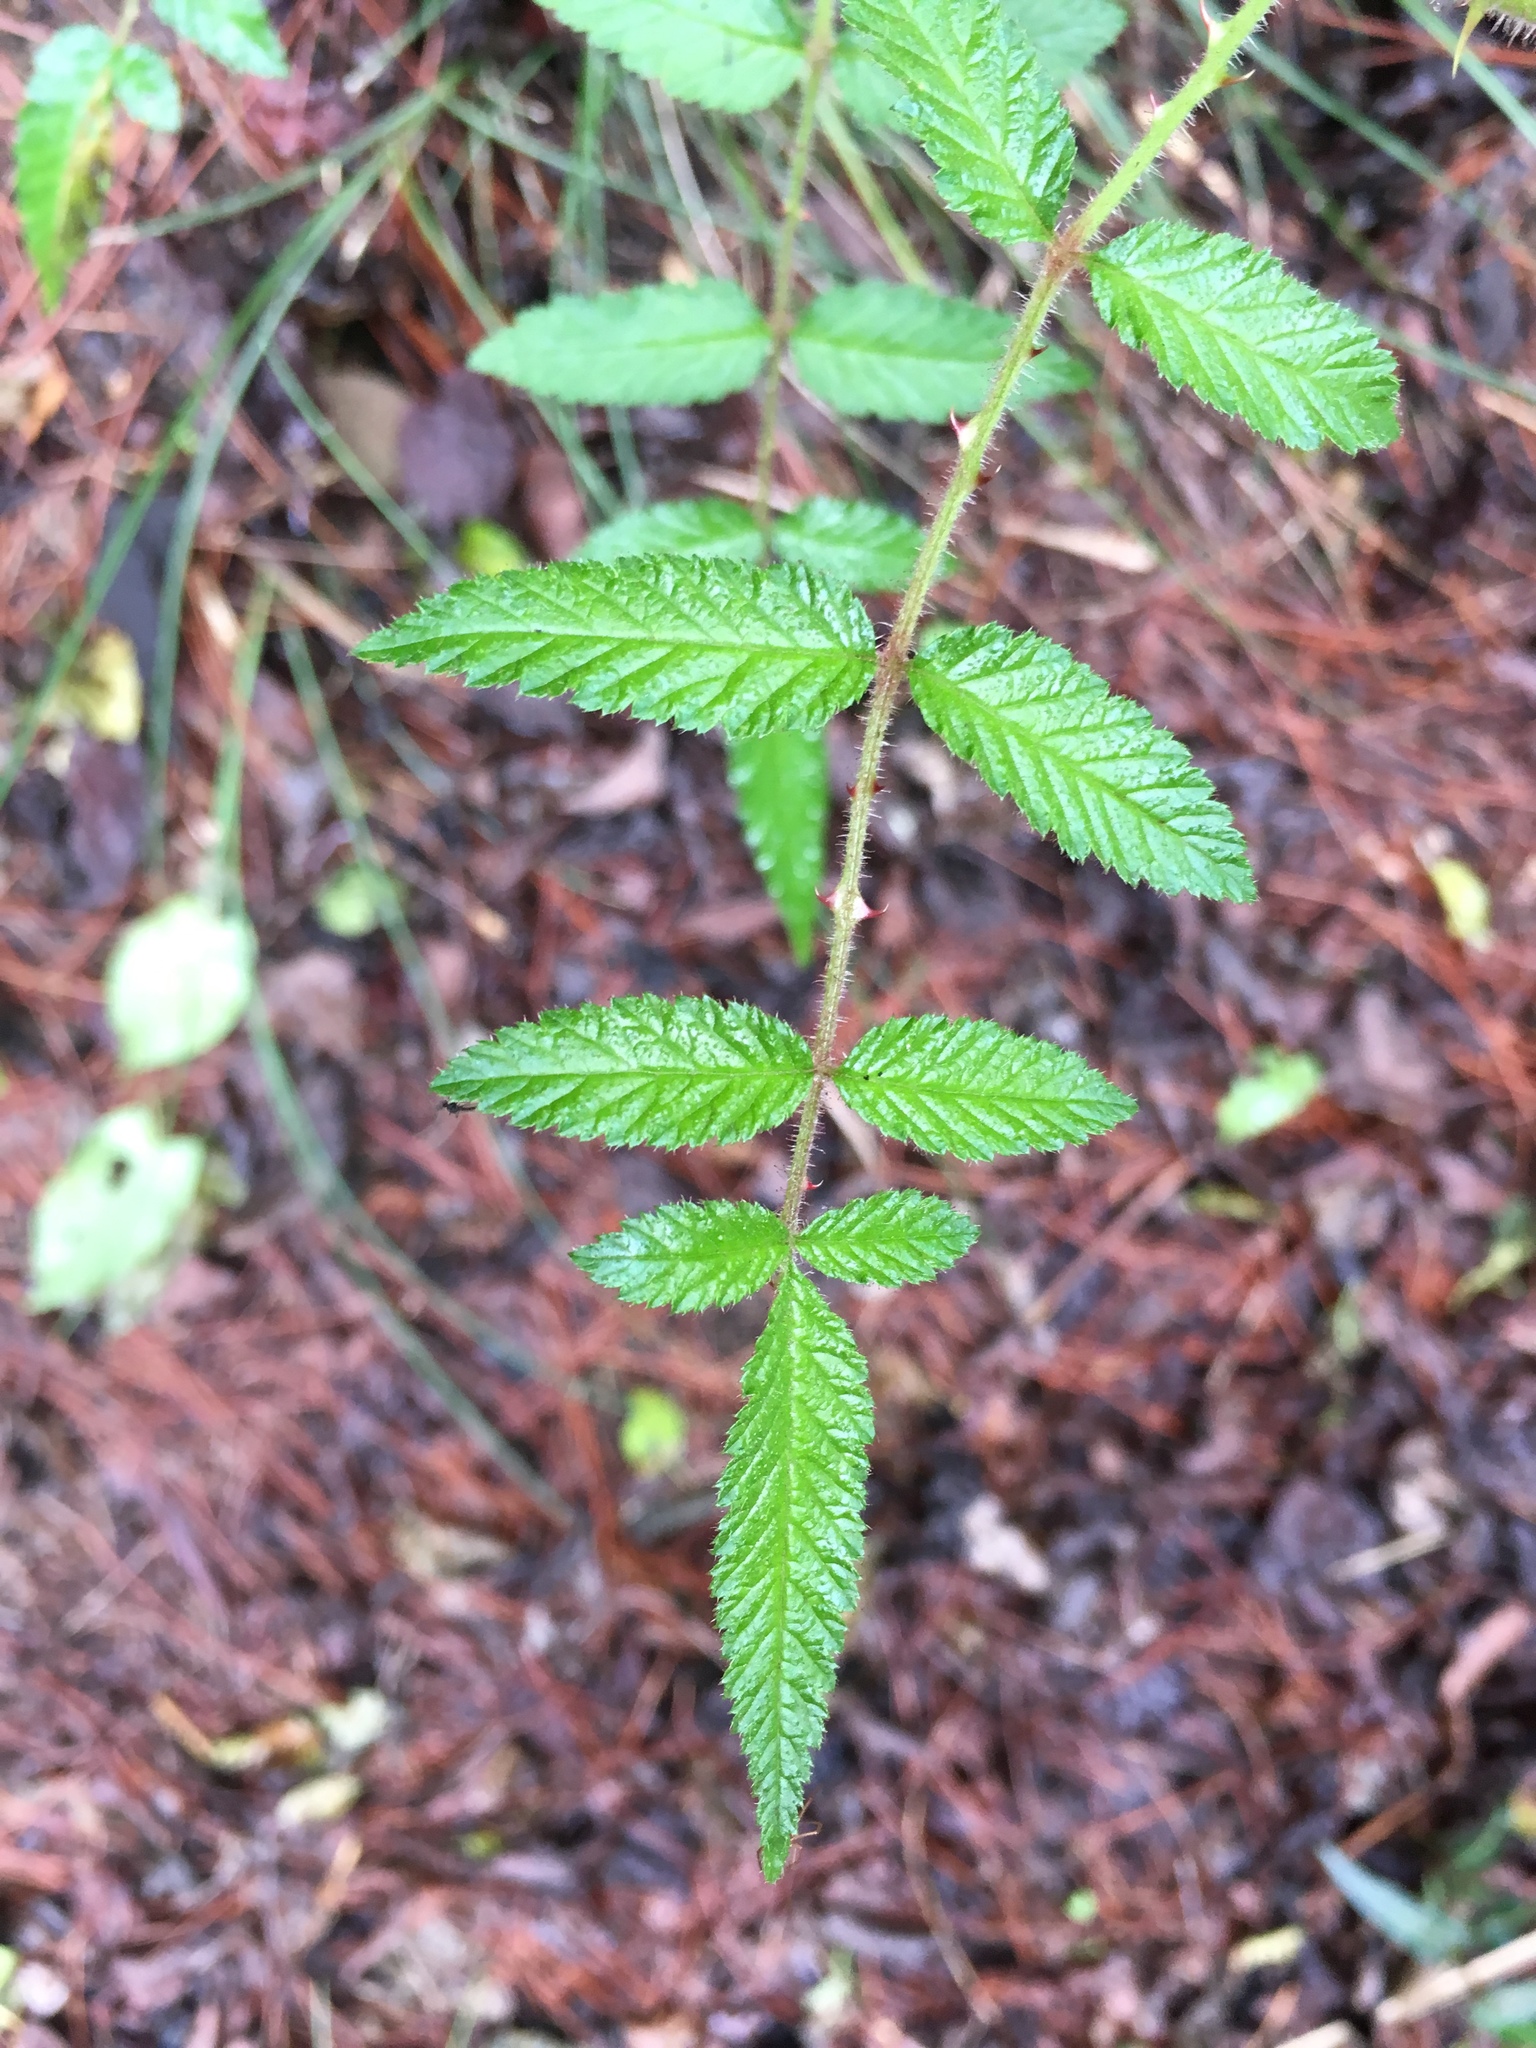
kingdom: Plantae
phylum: Tracheophyta
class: Magnoliopsida
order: Rosales
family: Rosaceae
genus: Rubus
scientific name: Rubus croceacanthus
